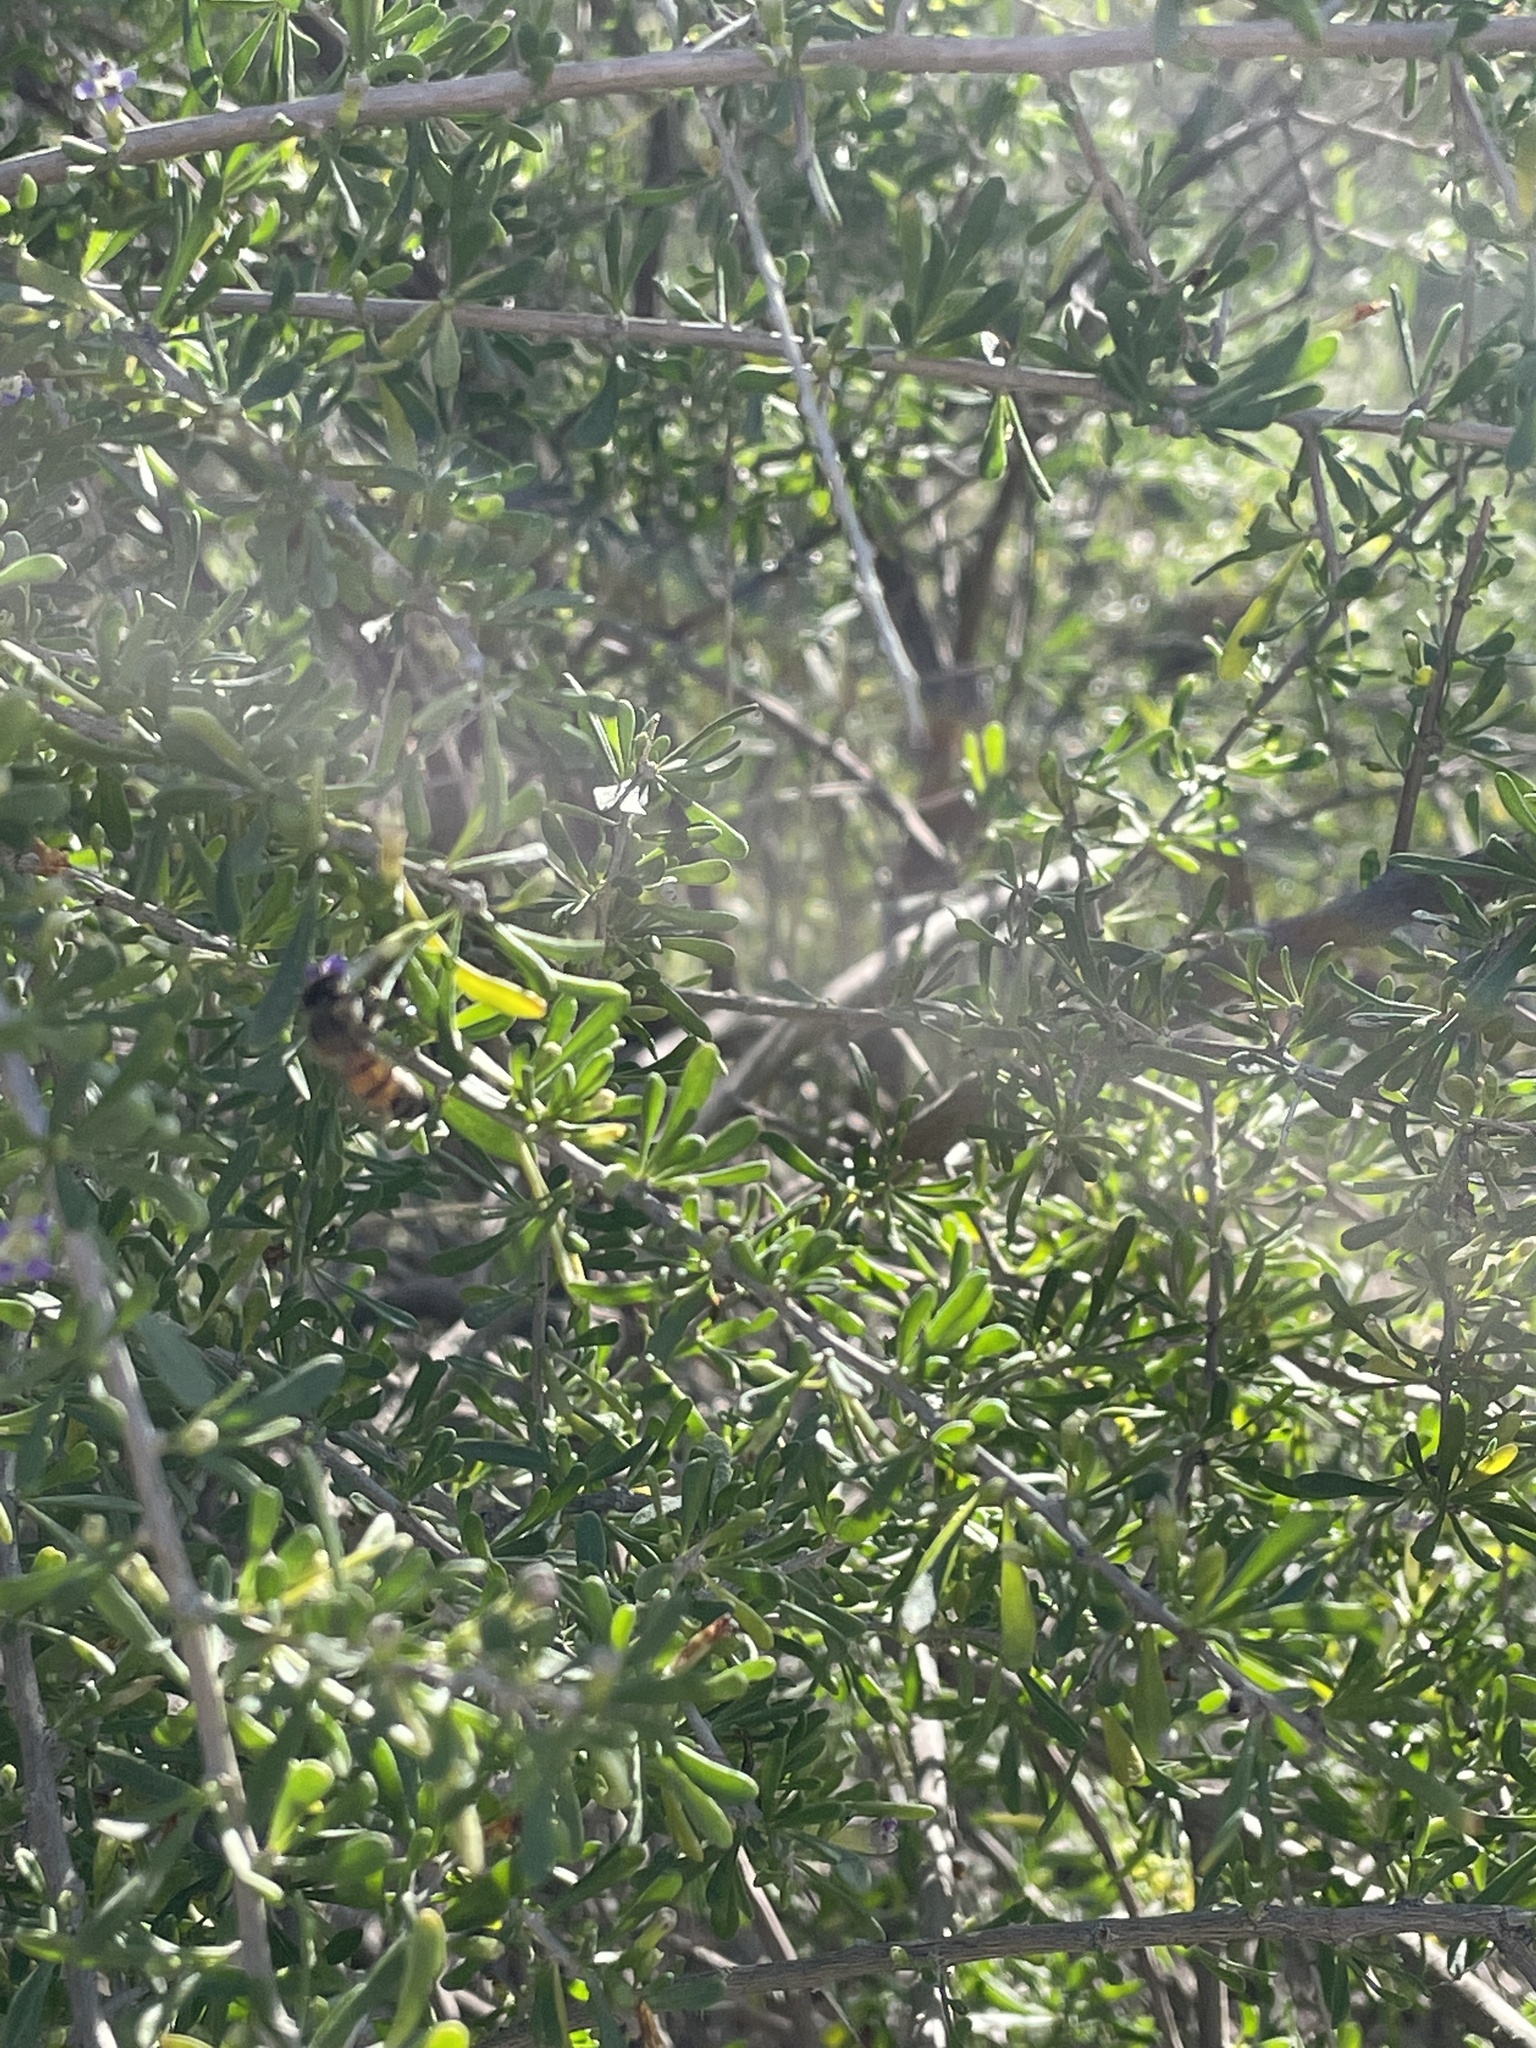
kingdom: Animalia
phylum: Arthropoda
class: Insecta
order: Hymenoptera
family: Apidae
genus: Apis
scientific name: Apis mellifera
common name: Honey bee
